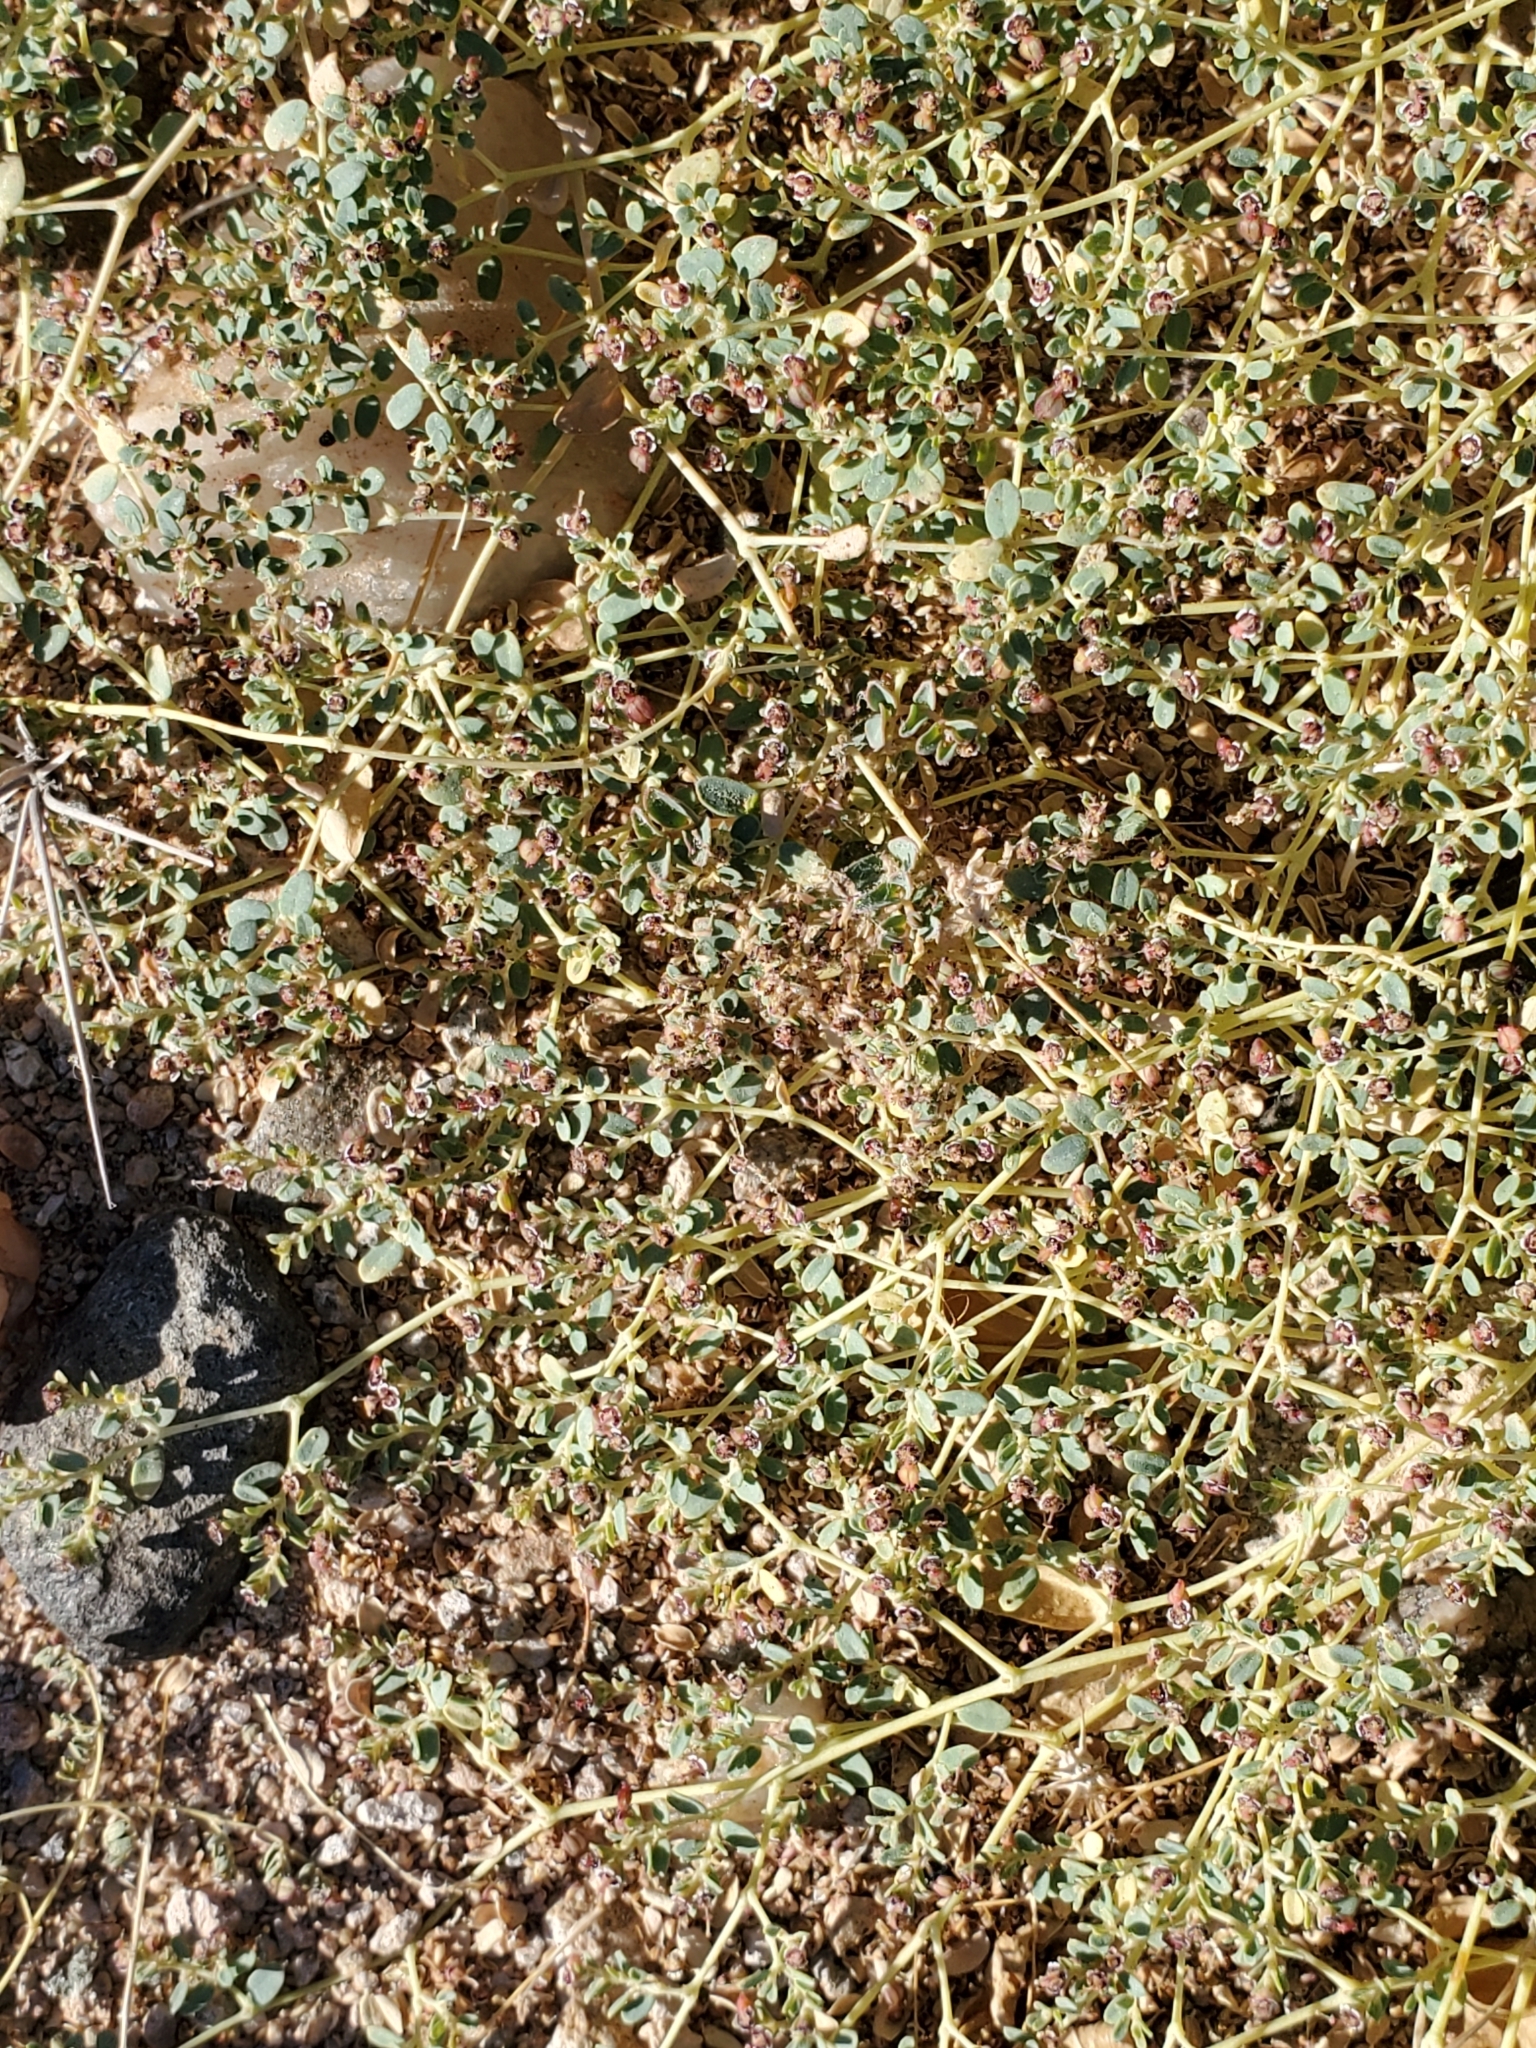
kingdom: Plantae
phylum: Tracheophyta
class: Magnoliopsida
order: Malpighiales
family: Euphorbiaceae
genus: Euphorbia
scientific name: Euphorbia polycarpa
